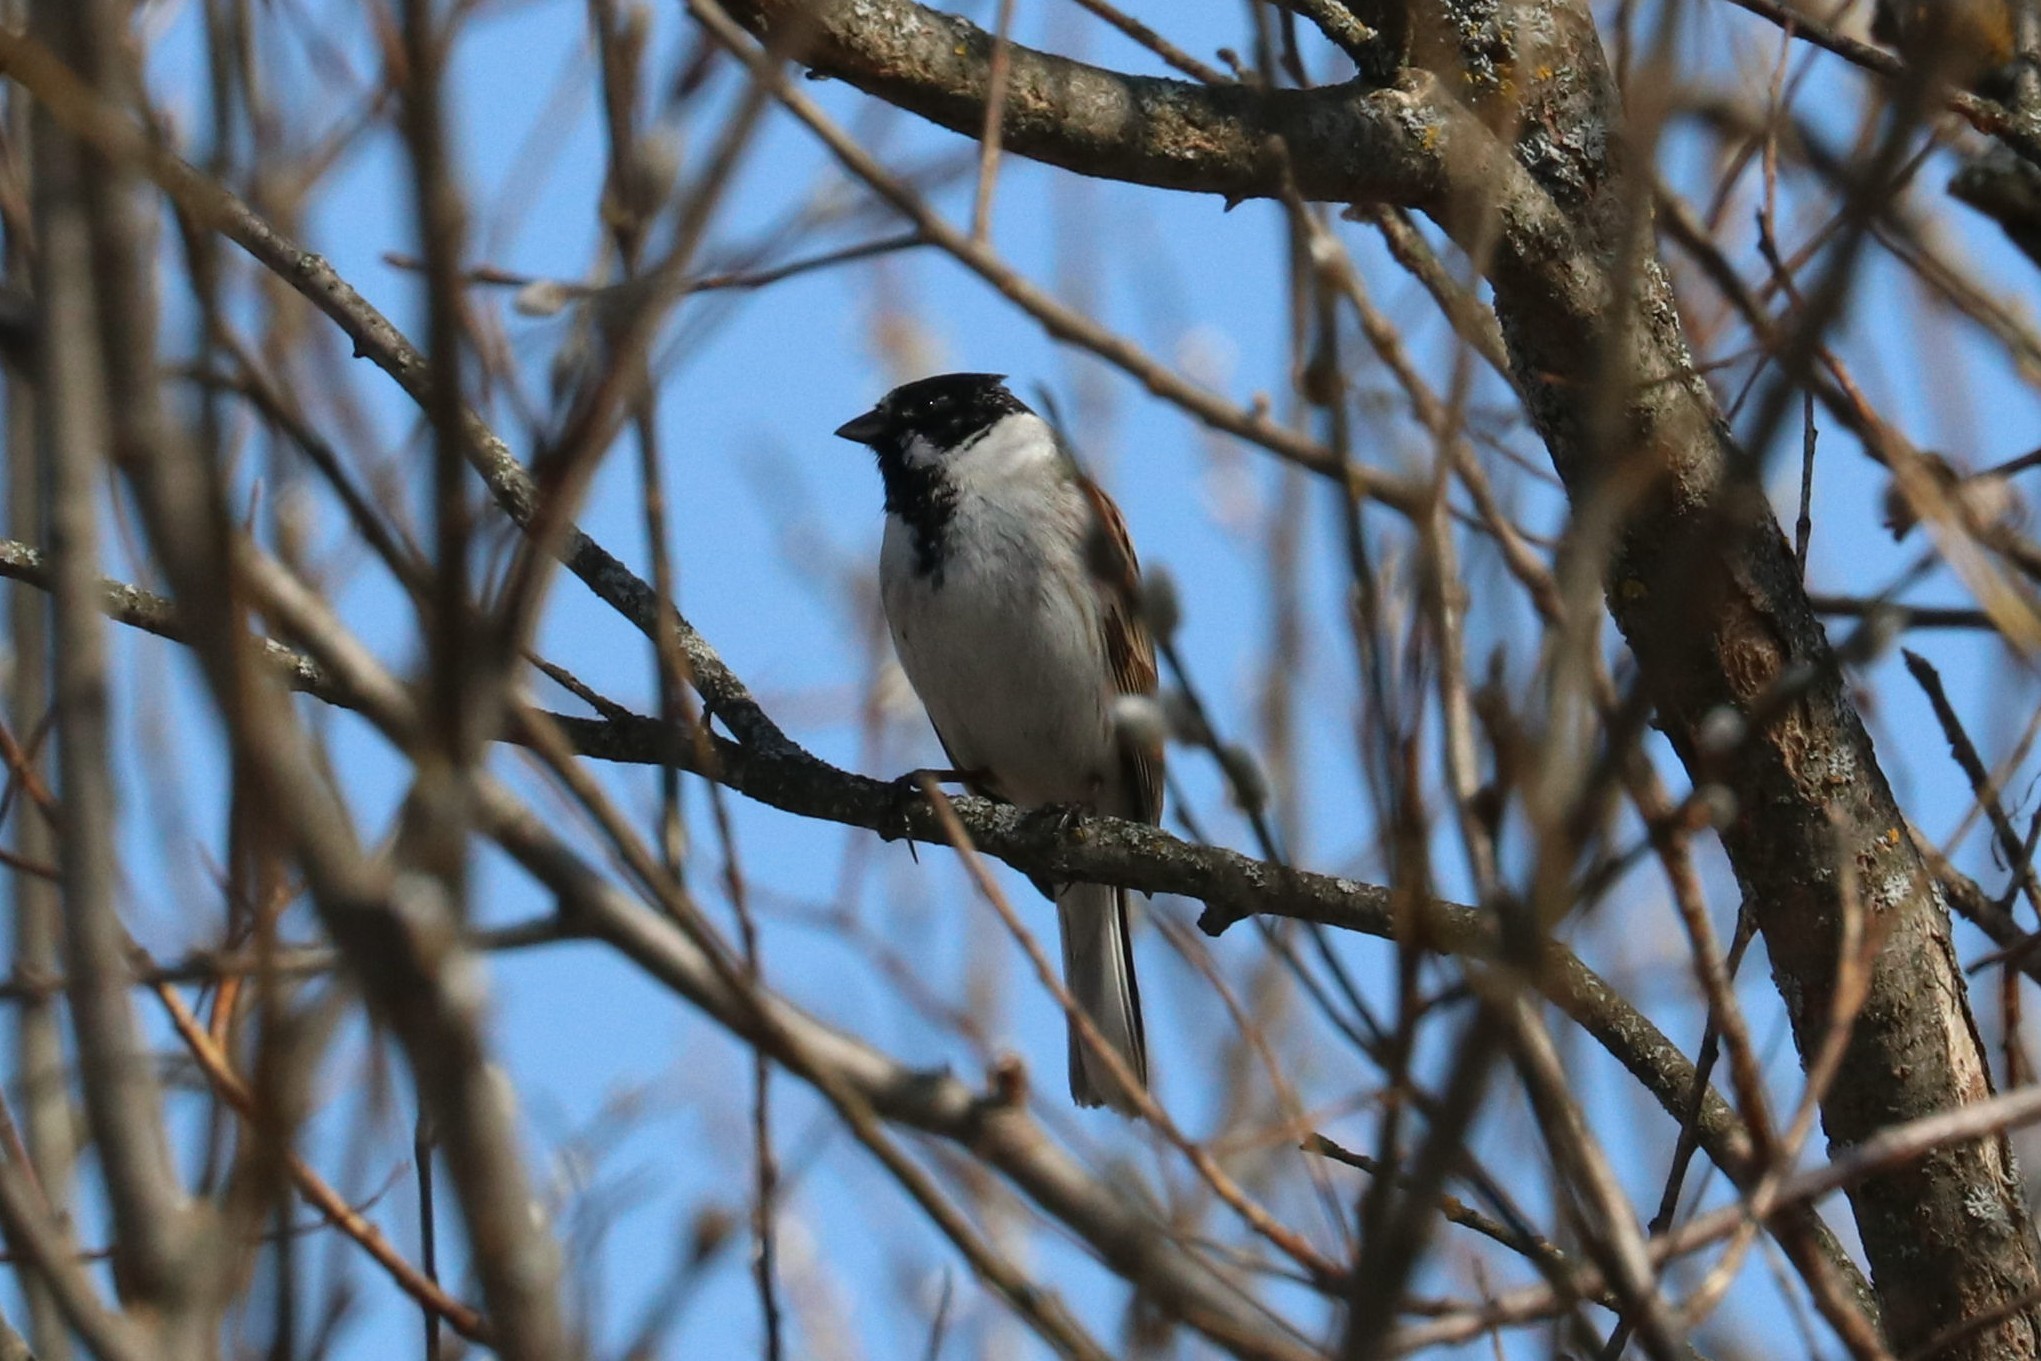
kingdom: Animalia
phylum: Chordata
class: Aves
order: Passeriformes
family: Emberizidae
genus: Emberiza
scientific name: Emberiza schoeniclus
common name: Reed bunting
